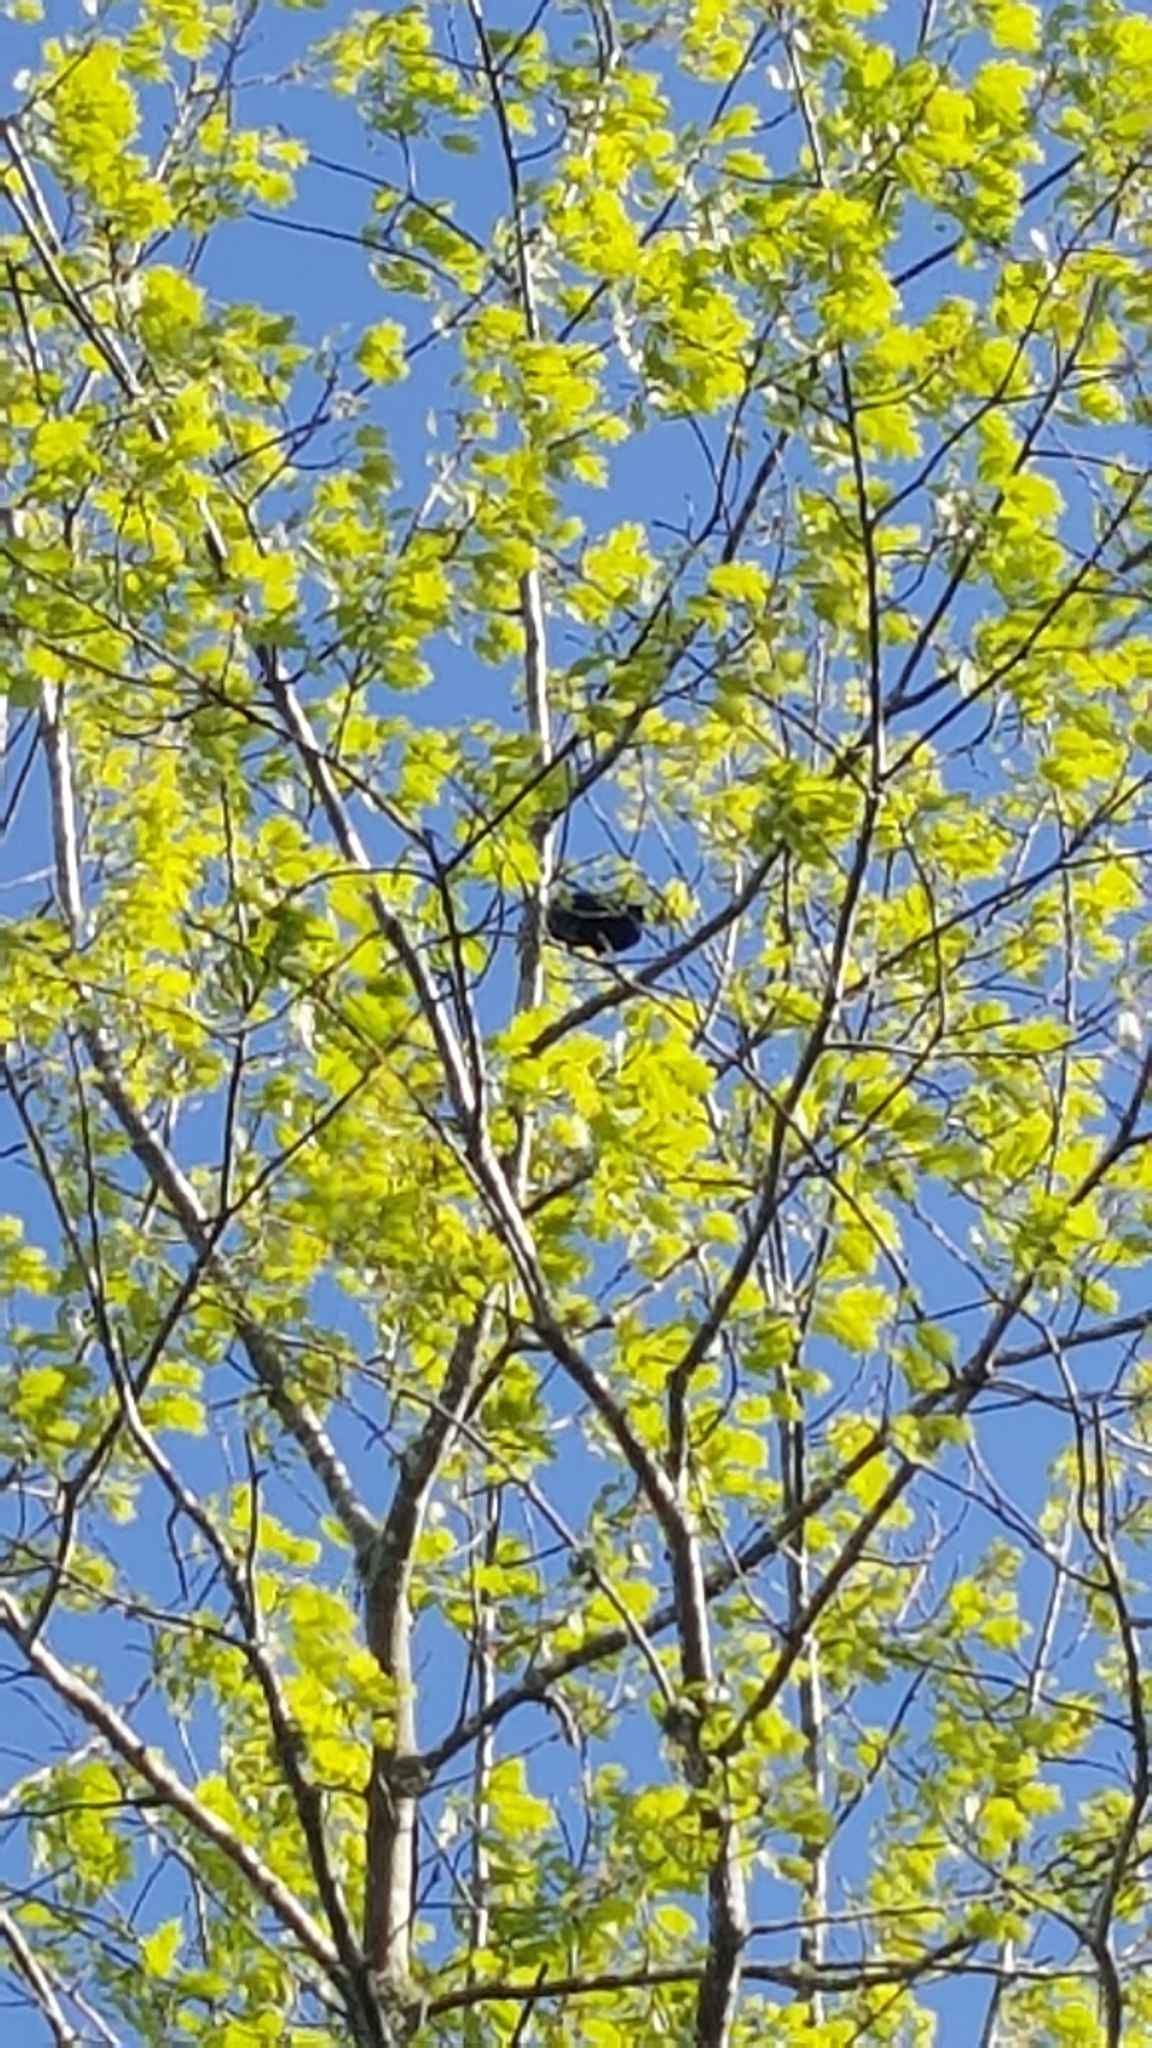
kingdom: Animalia
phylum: Chordata
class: Aves
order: Passeriformes
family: Meliphagidae
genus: Prosthemadera
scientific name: Prosthemadera novaeseelandiae
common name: Tui
